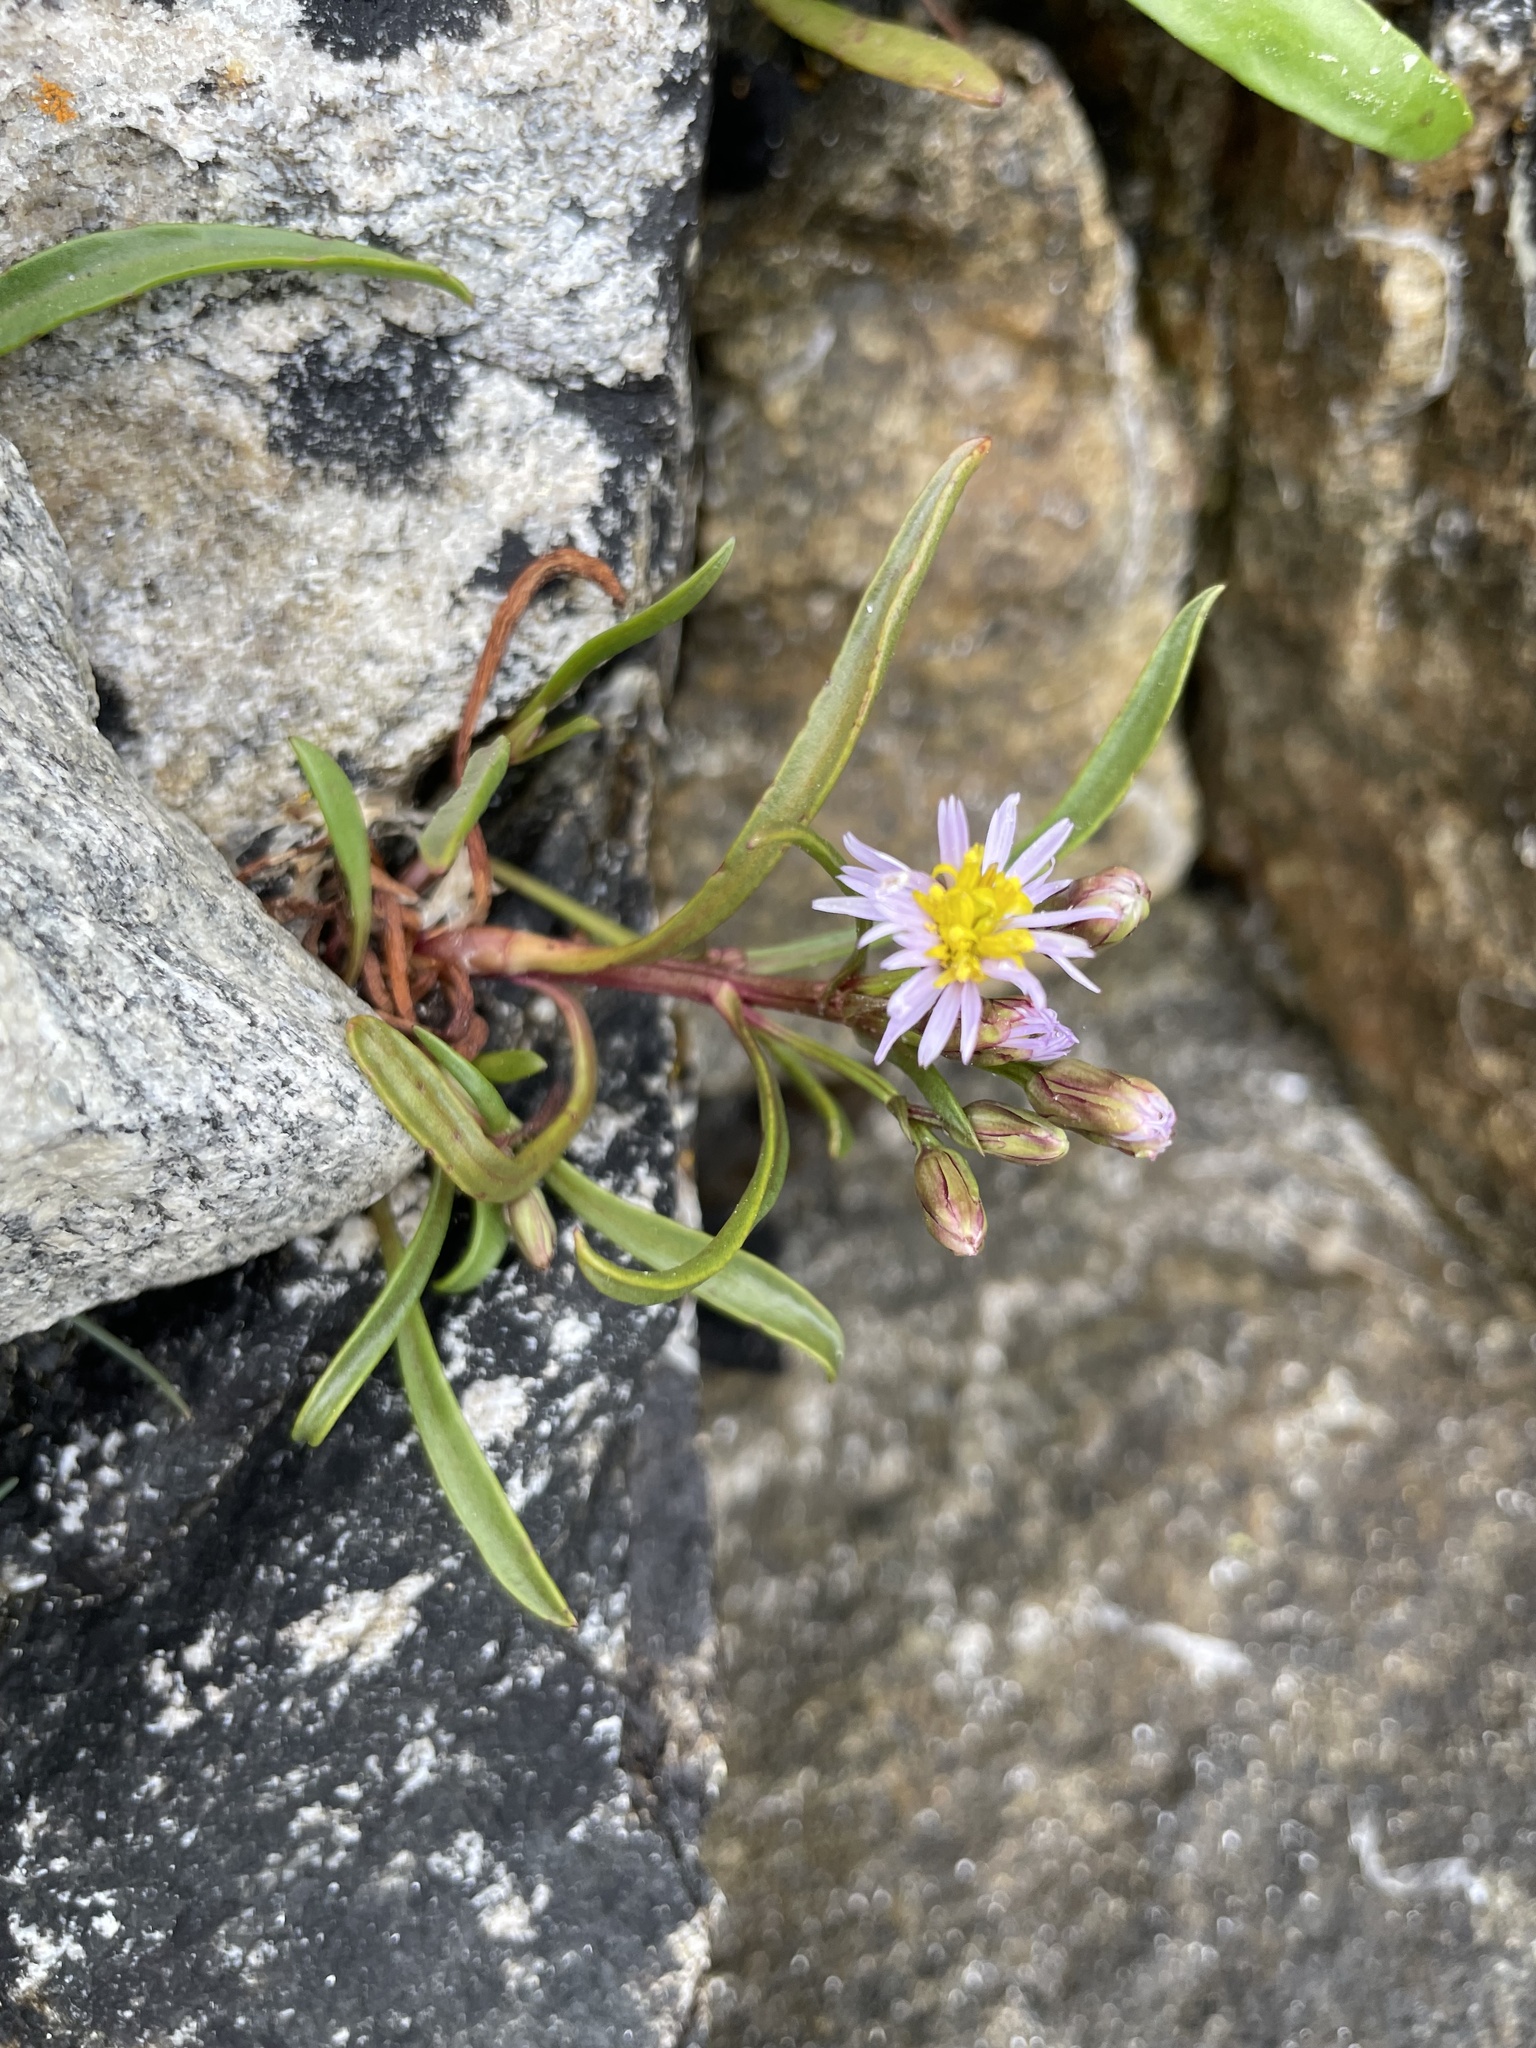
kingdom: Plantae
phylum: Tracheophyta
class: Magnoliopsida
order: Asterales
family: Asteraceae
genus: Tripolium
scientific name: Tripolium pannonicum
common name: Sea aster
